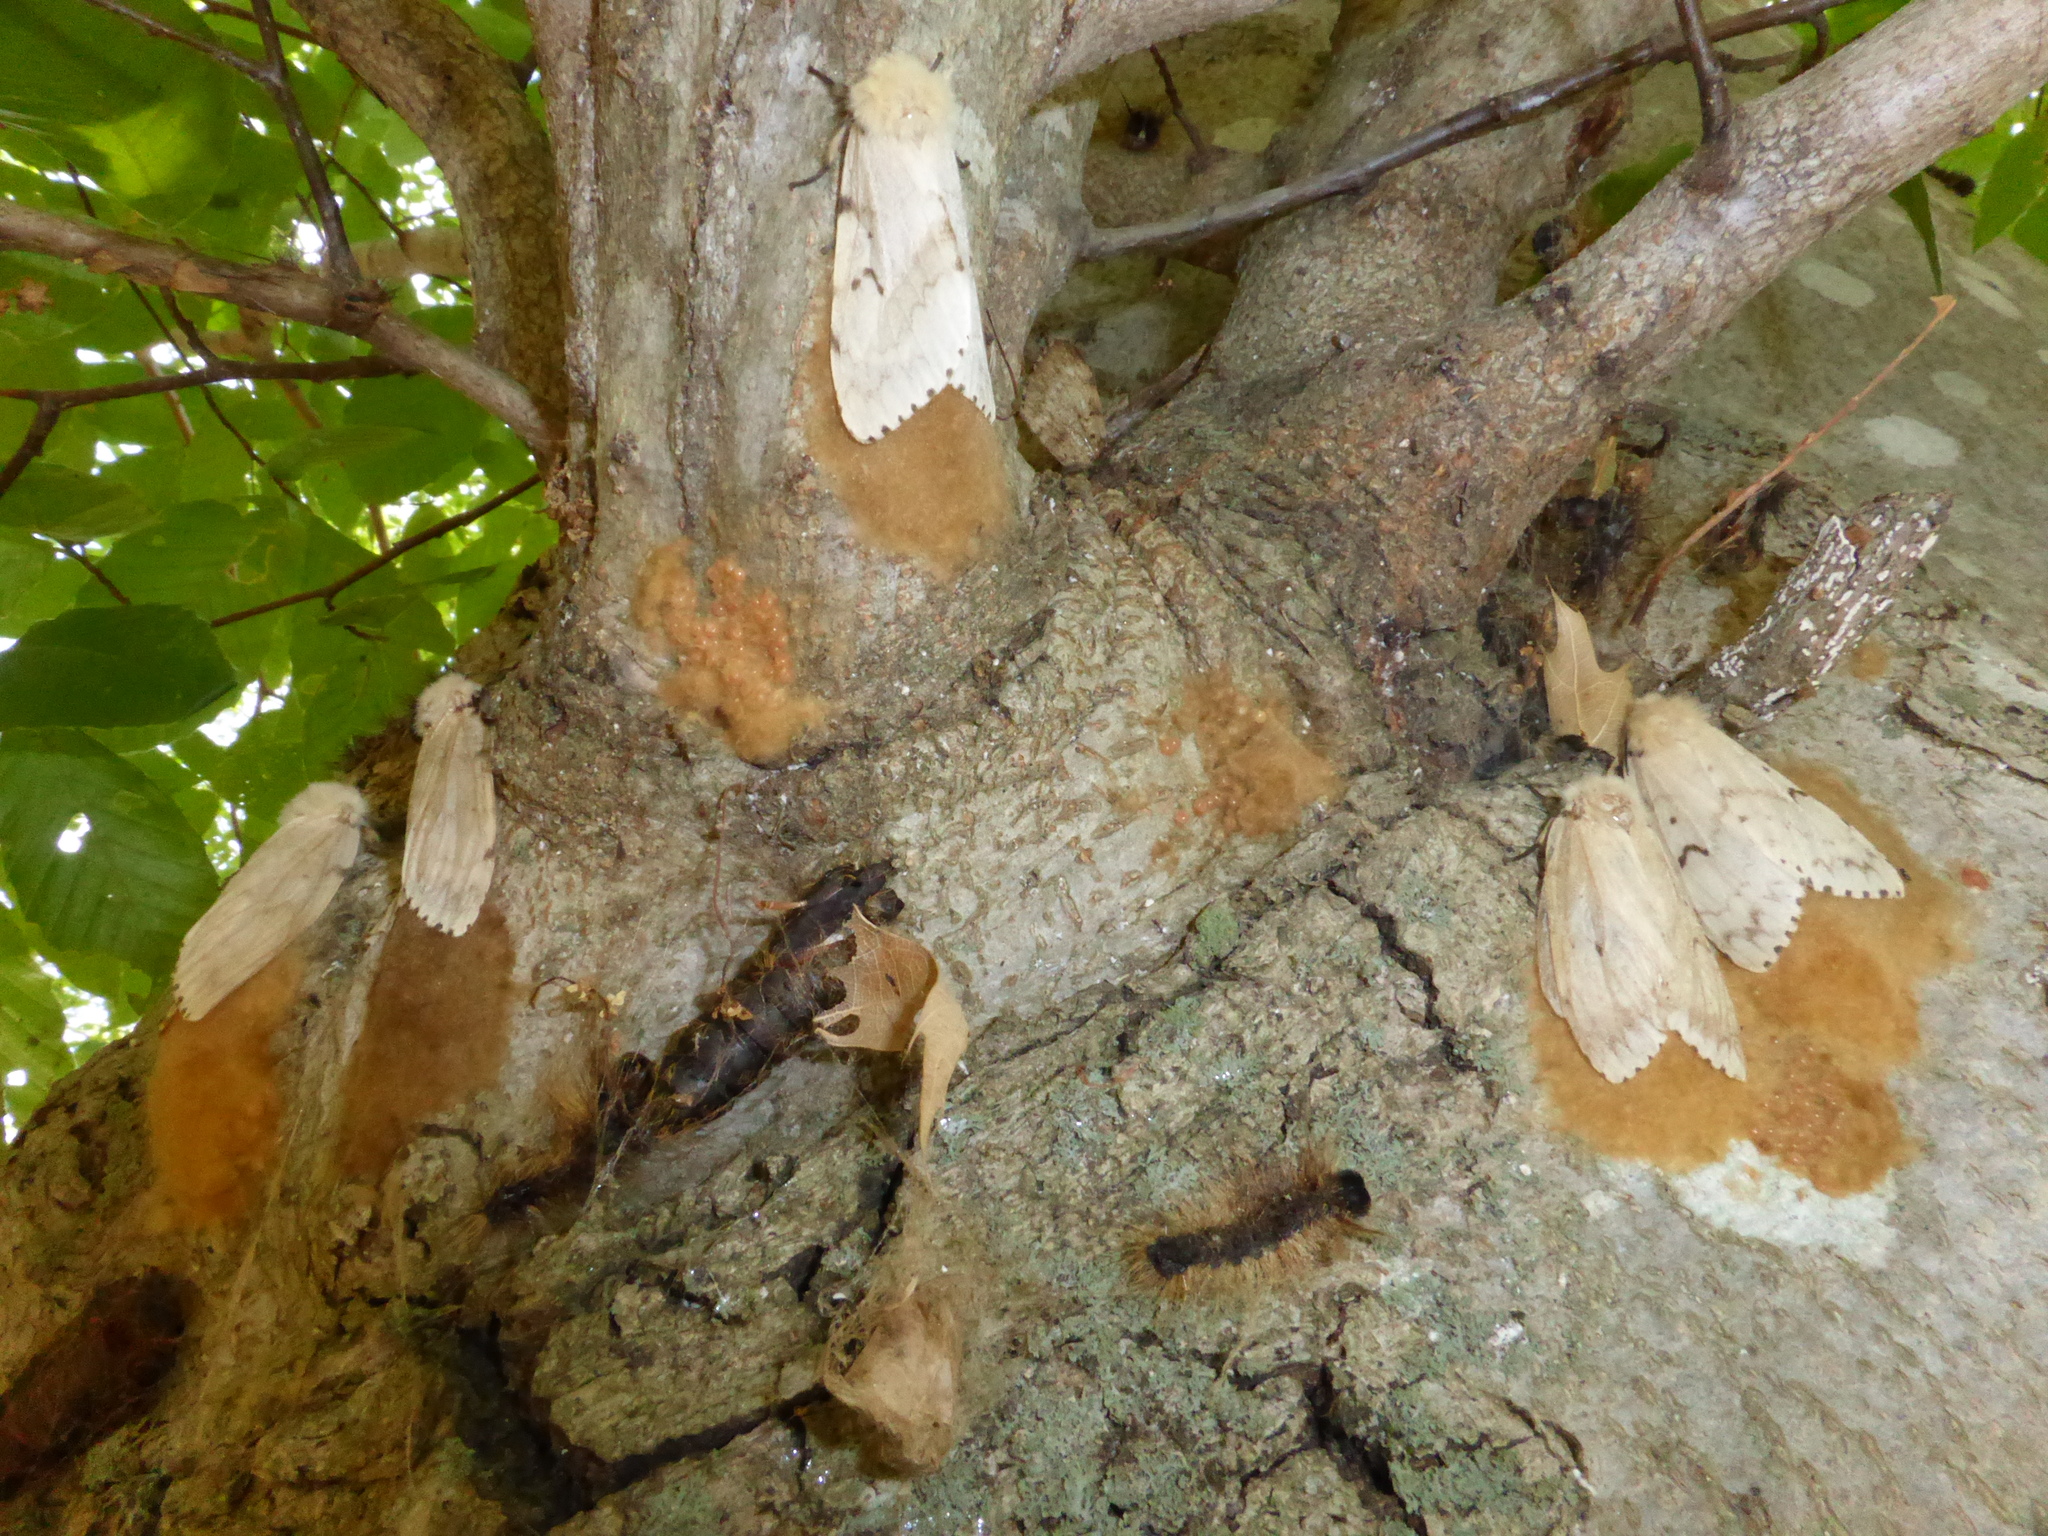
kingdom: Animalia
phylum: Arthropoda
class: Insecta
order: Lepidoptera
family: Erebidae
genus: Lymantria
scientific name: Lymantria dispar
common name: Gypsy moth
